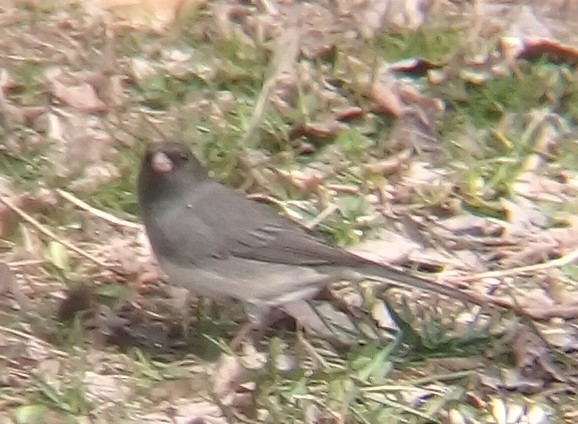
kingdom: Animalia
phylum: Chordata
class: Aves
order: Passeriformes
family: Passerellidae
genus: Junco
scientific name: Junco hyemalis
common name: Dark-eyed junco
